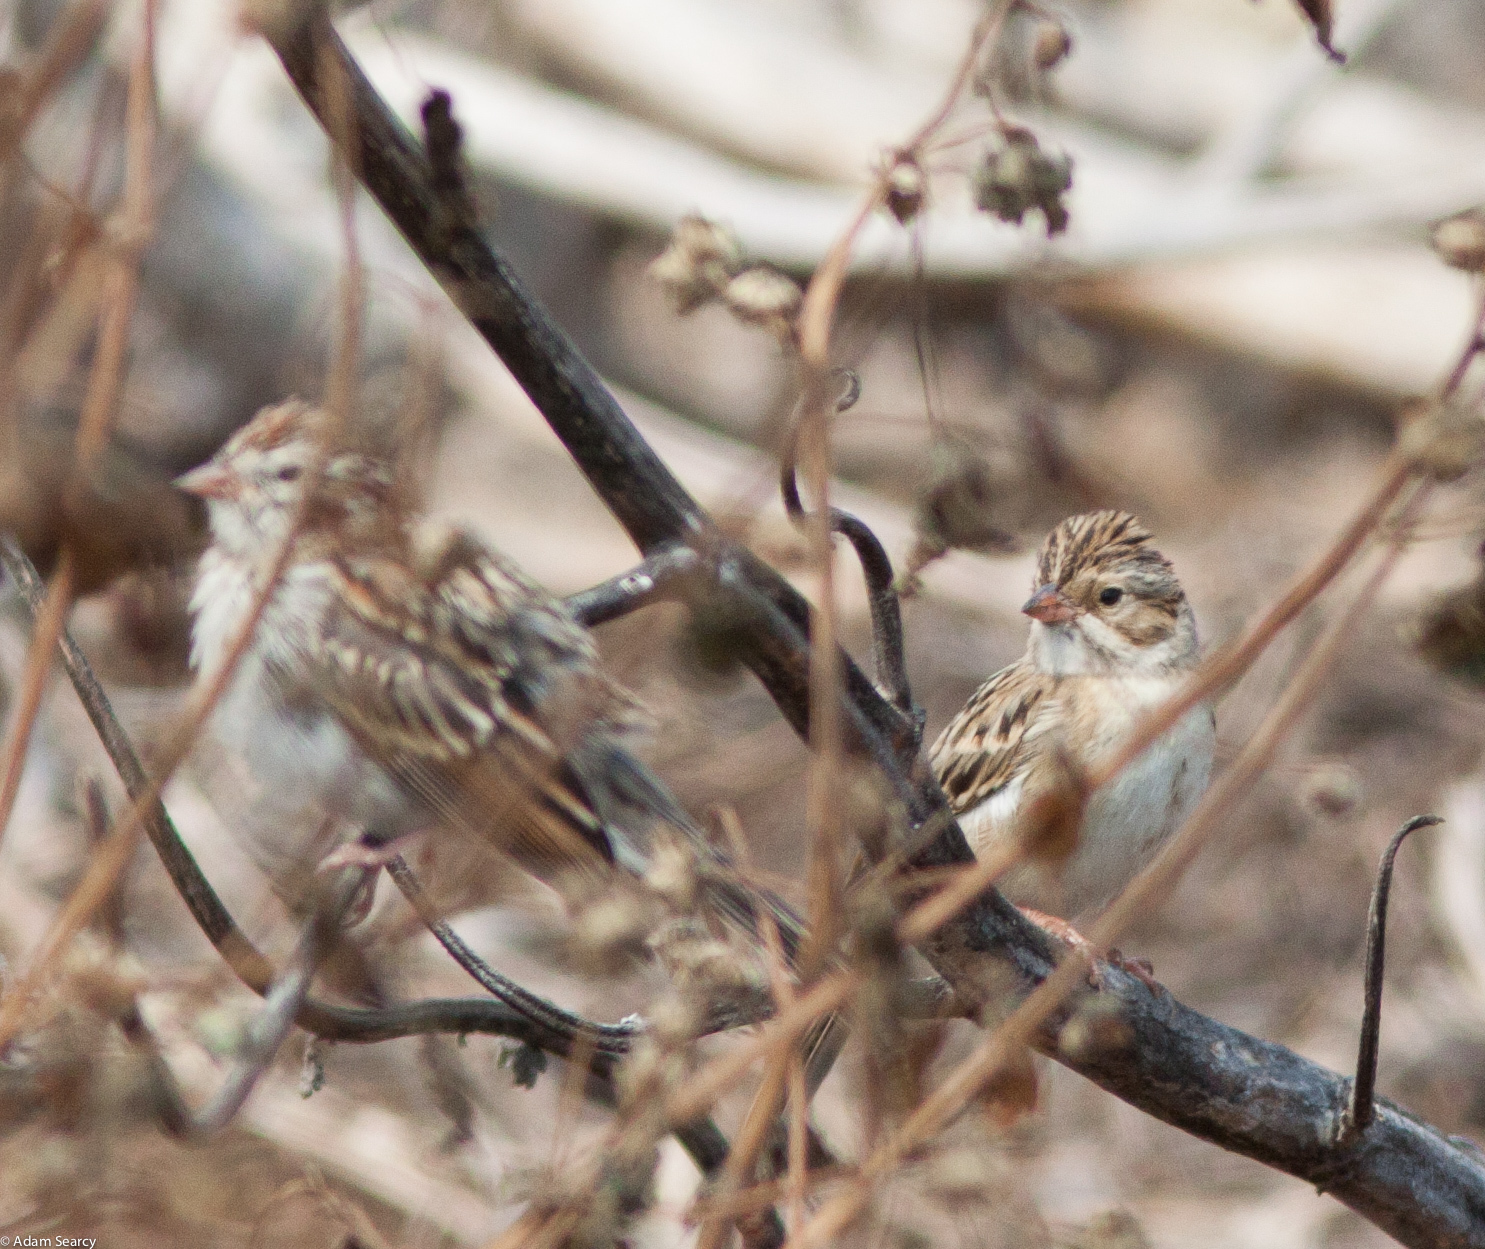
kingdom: Animalia
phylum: Chordata
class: Aves
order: Passeriformes
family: Passerellidae
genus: Spizella
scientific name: Spizella pallida
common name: Clay-colored sparrow
